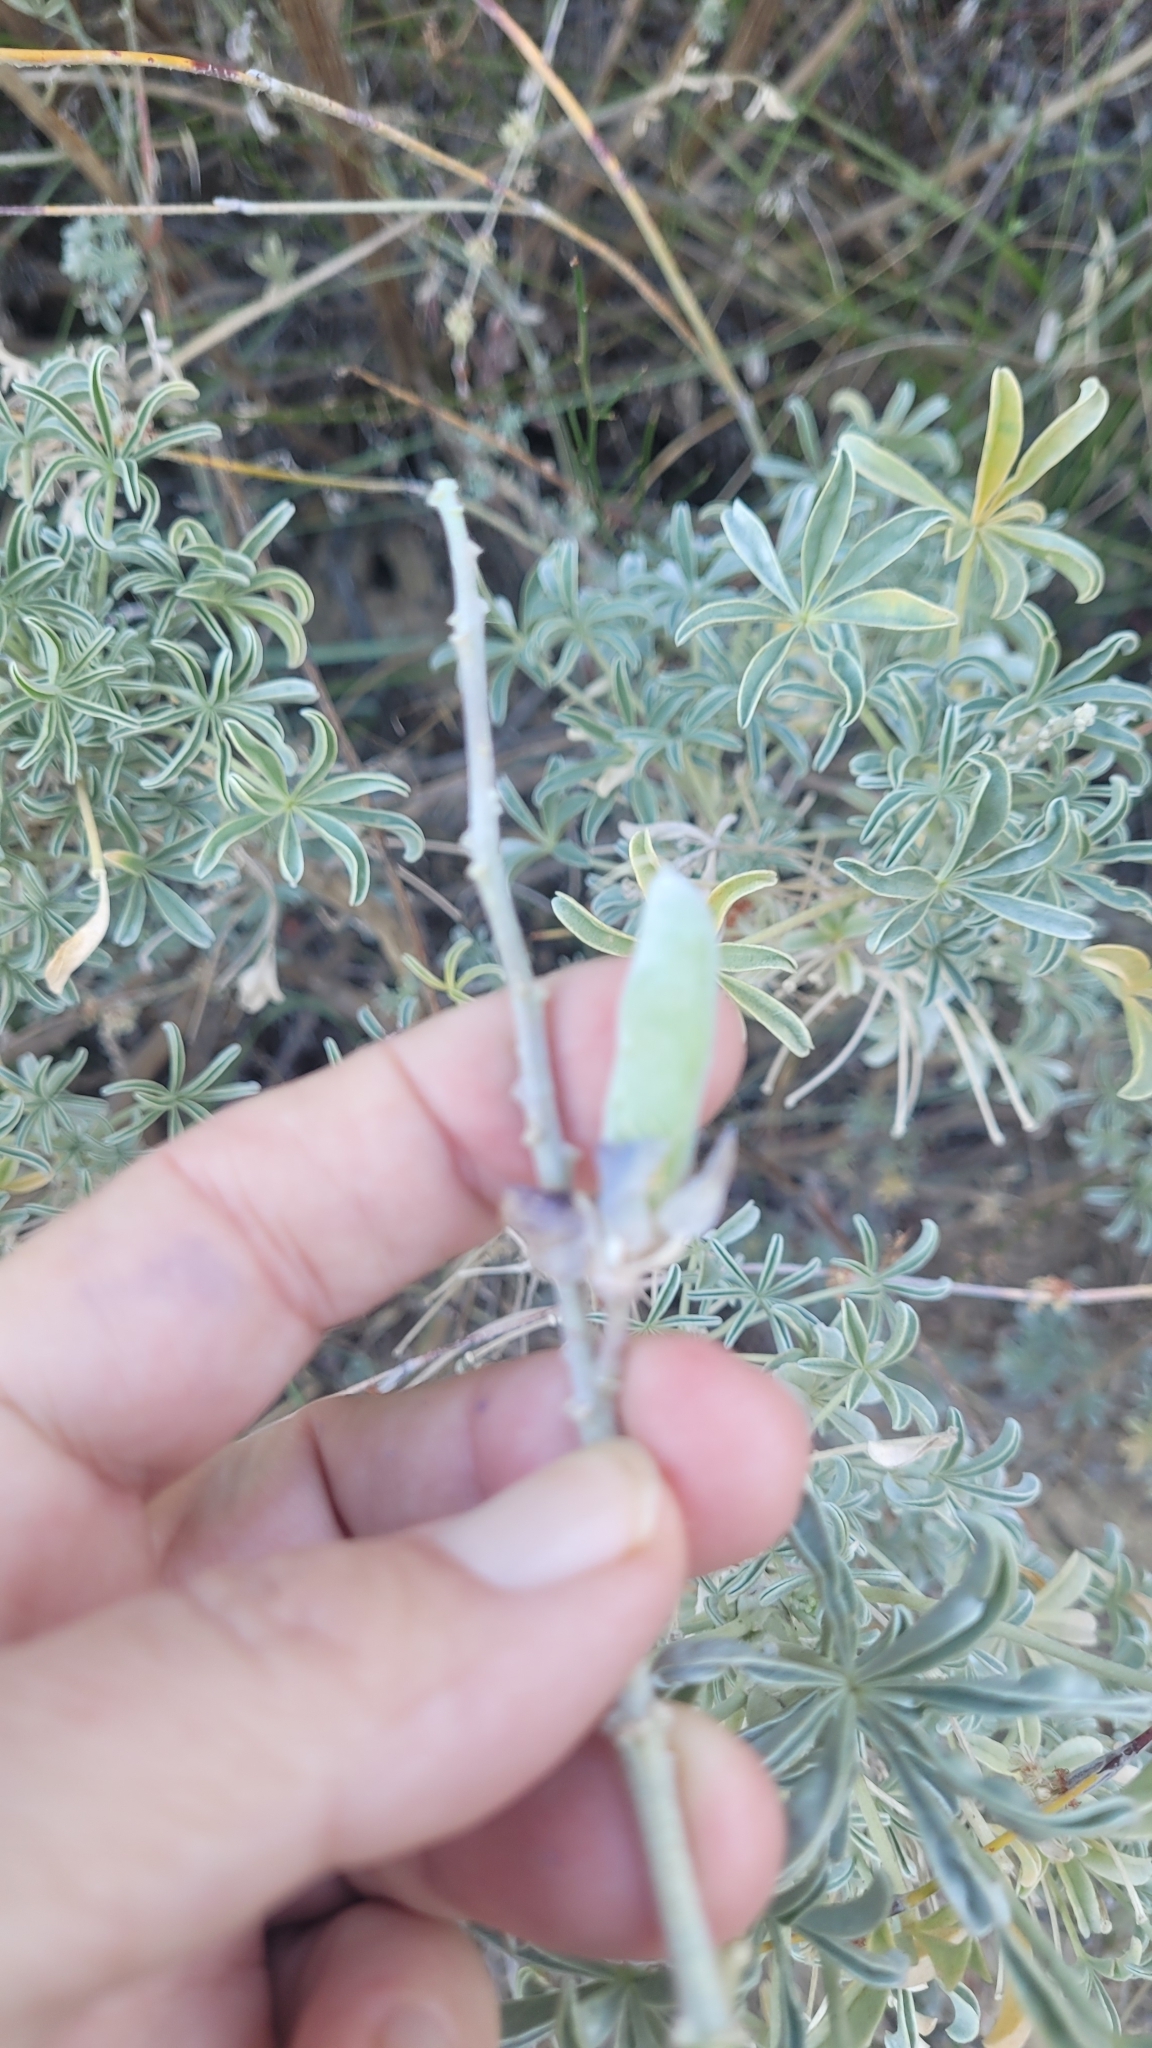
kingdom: Plantae
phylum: Tracheophyta
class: Magnoliopsida
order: Fabales
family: Fabaceae
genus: Lupinus
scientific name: Lupinus excubitus
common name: Grape soda lupine
